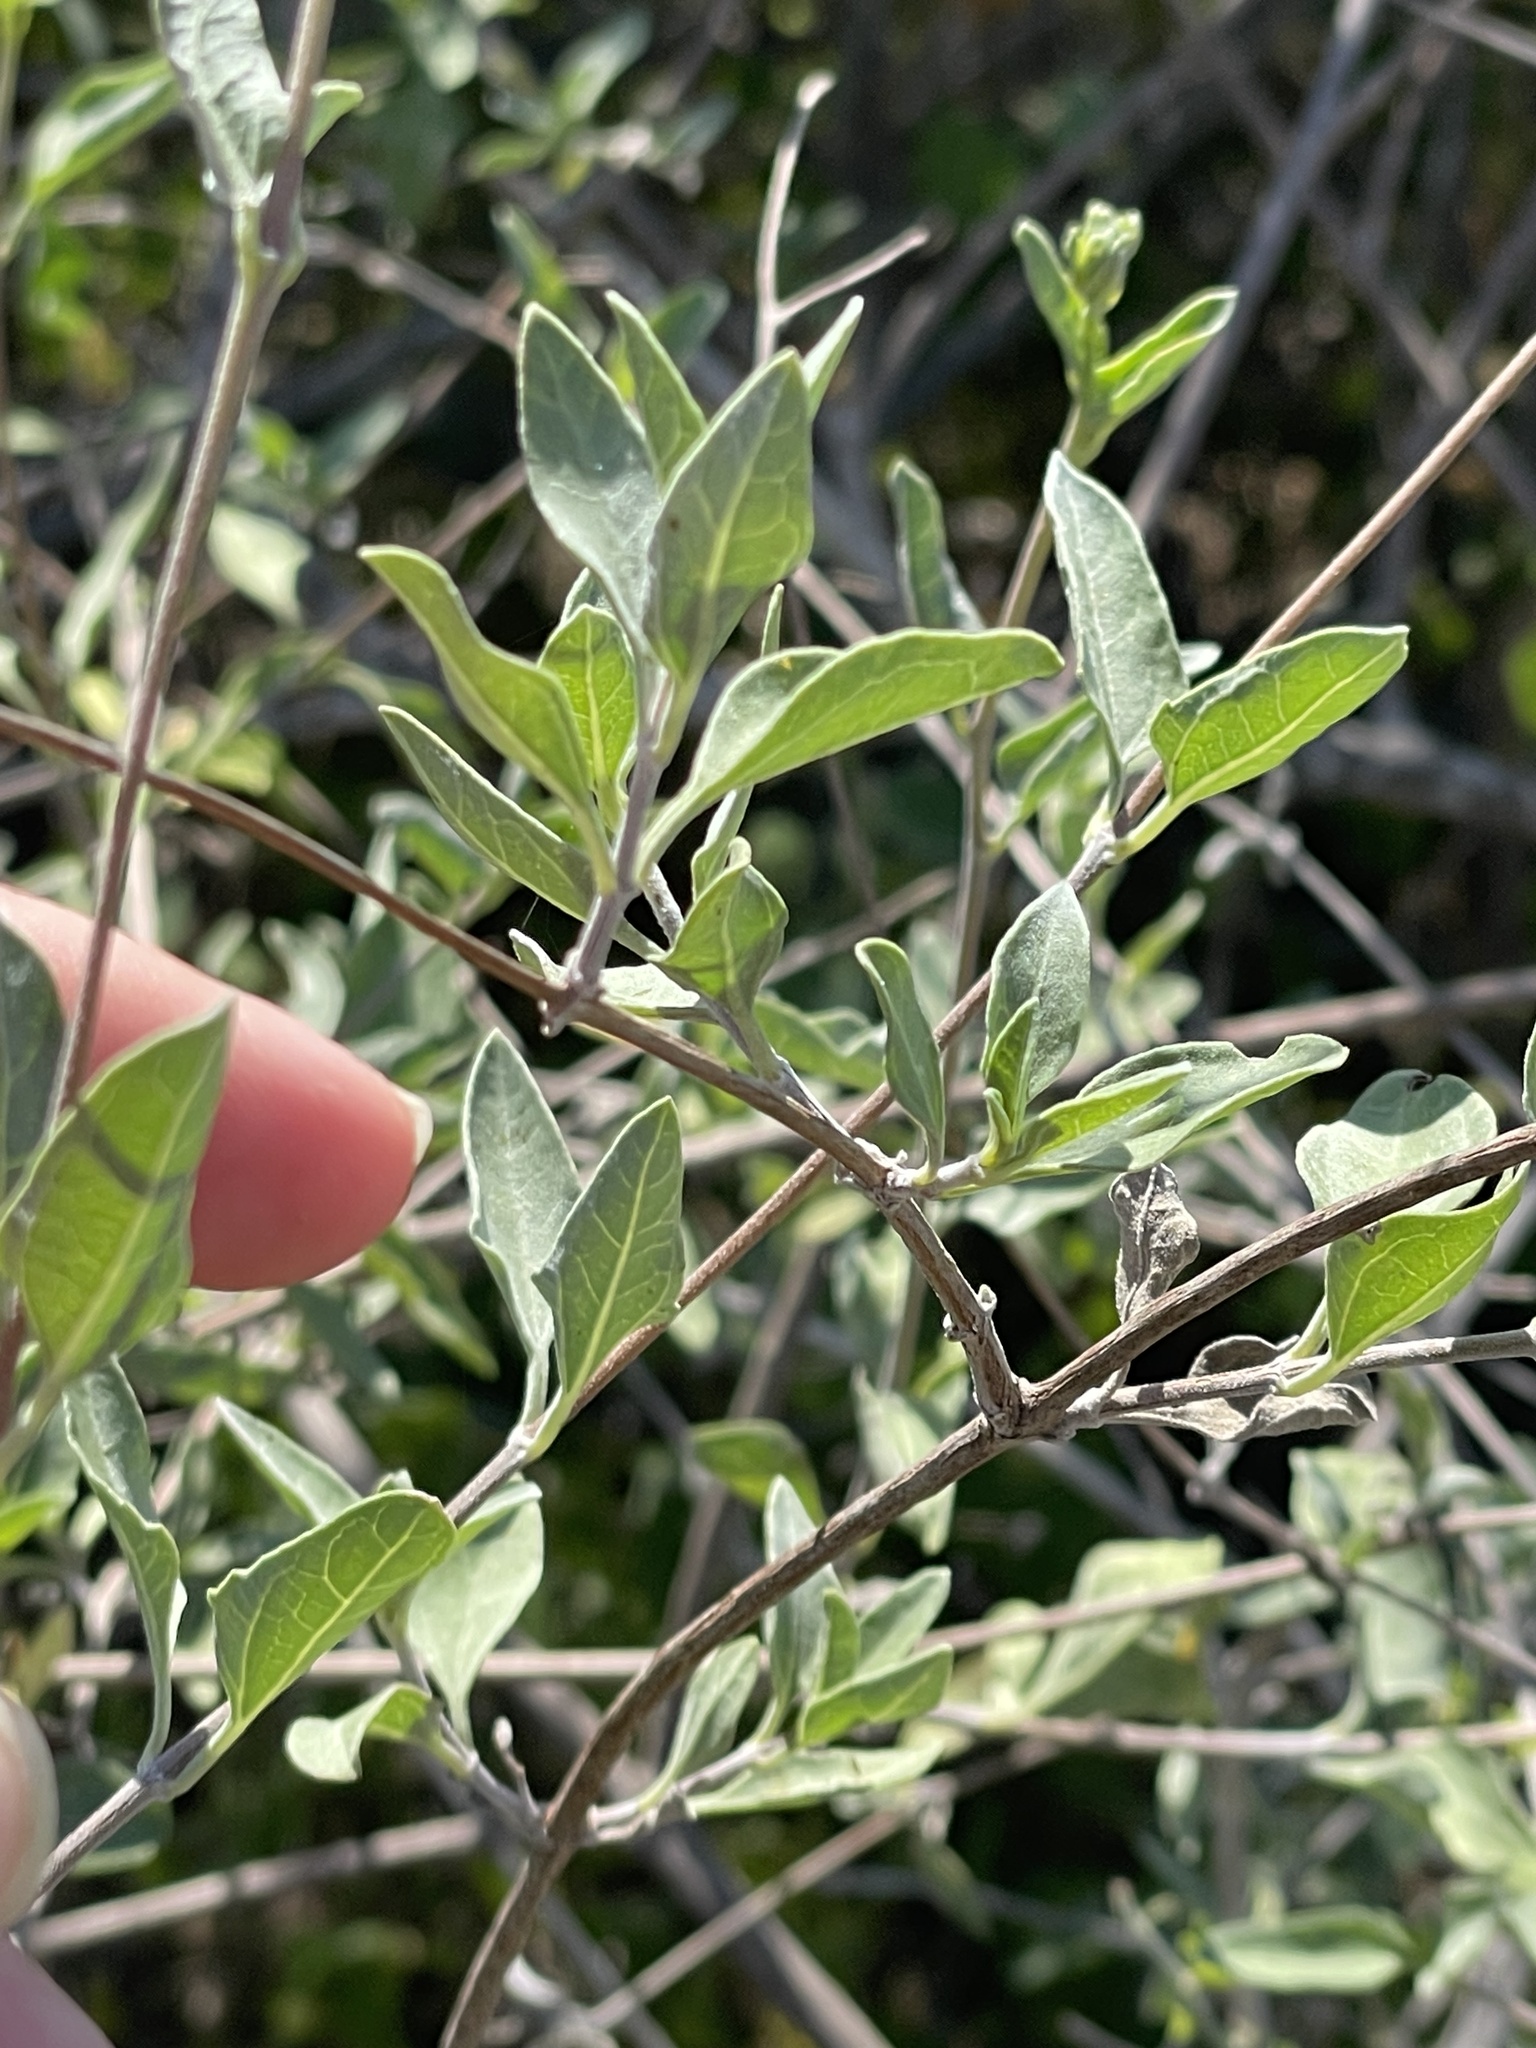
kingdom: Plantae
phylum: Tracheophyta
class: Magnoliopsida
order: Asterales
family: Asteraceae
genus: Bahiopsis
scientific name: Bahiopsis chenopodina
